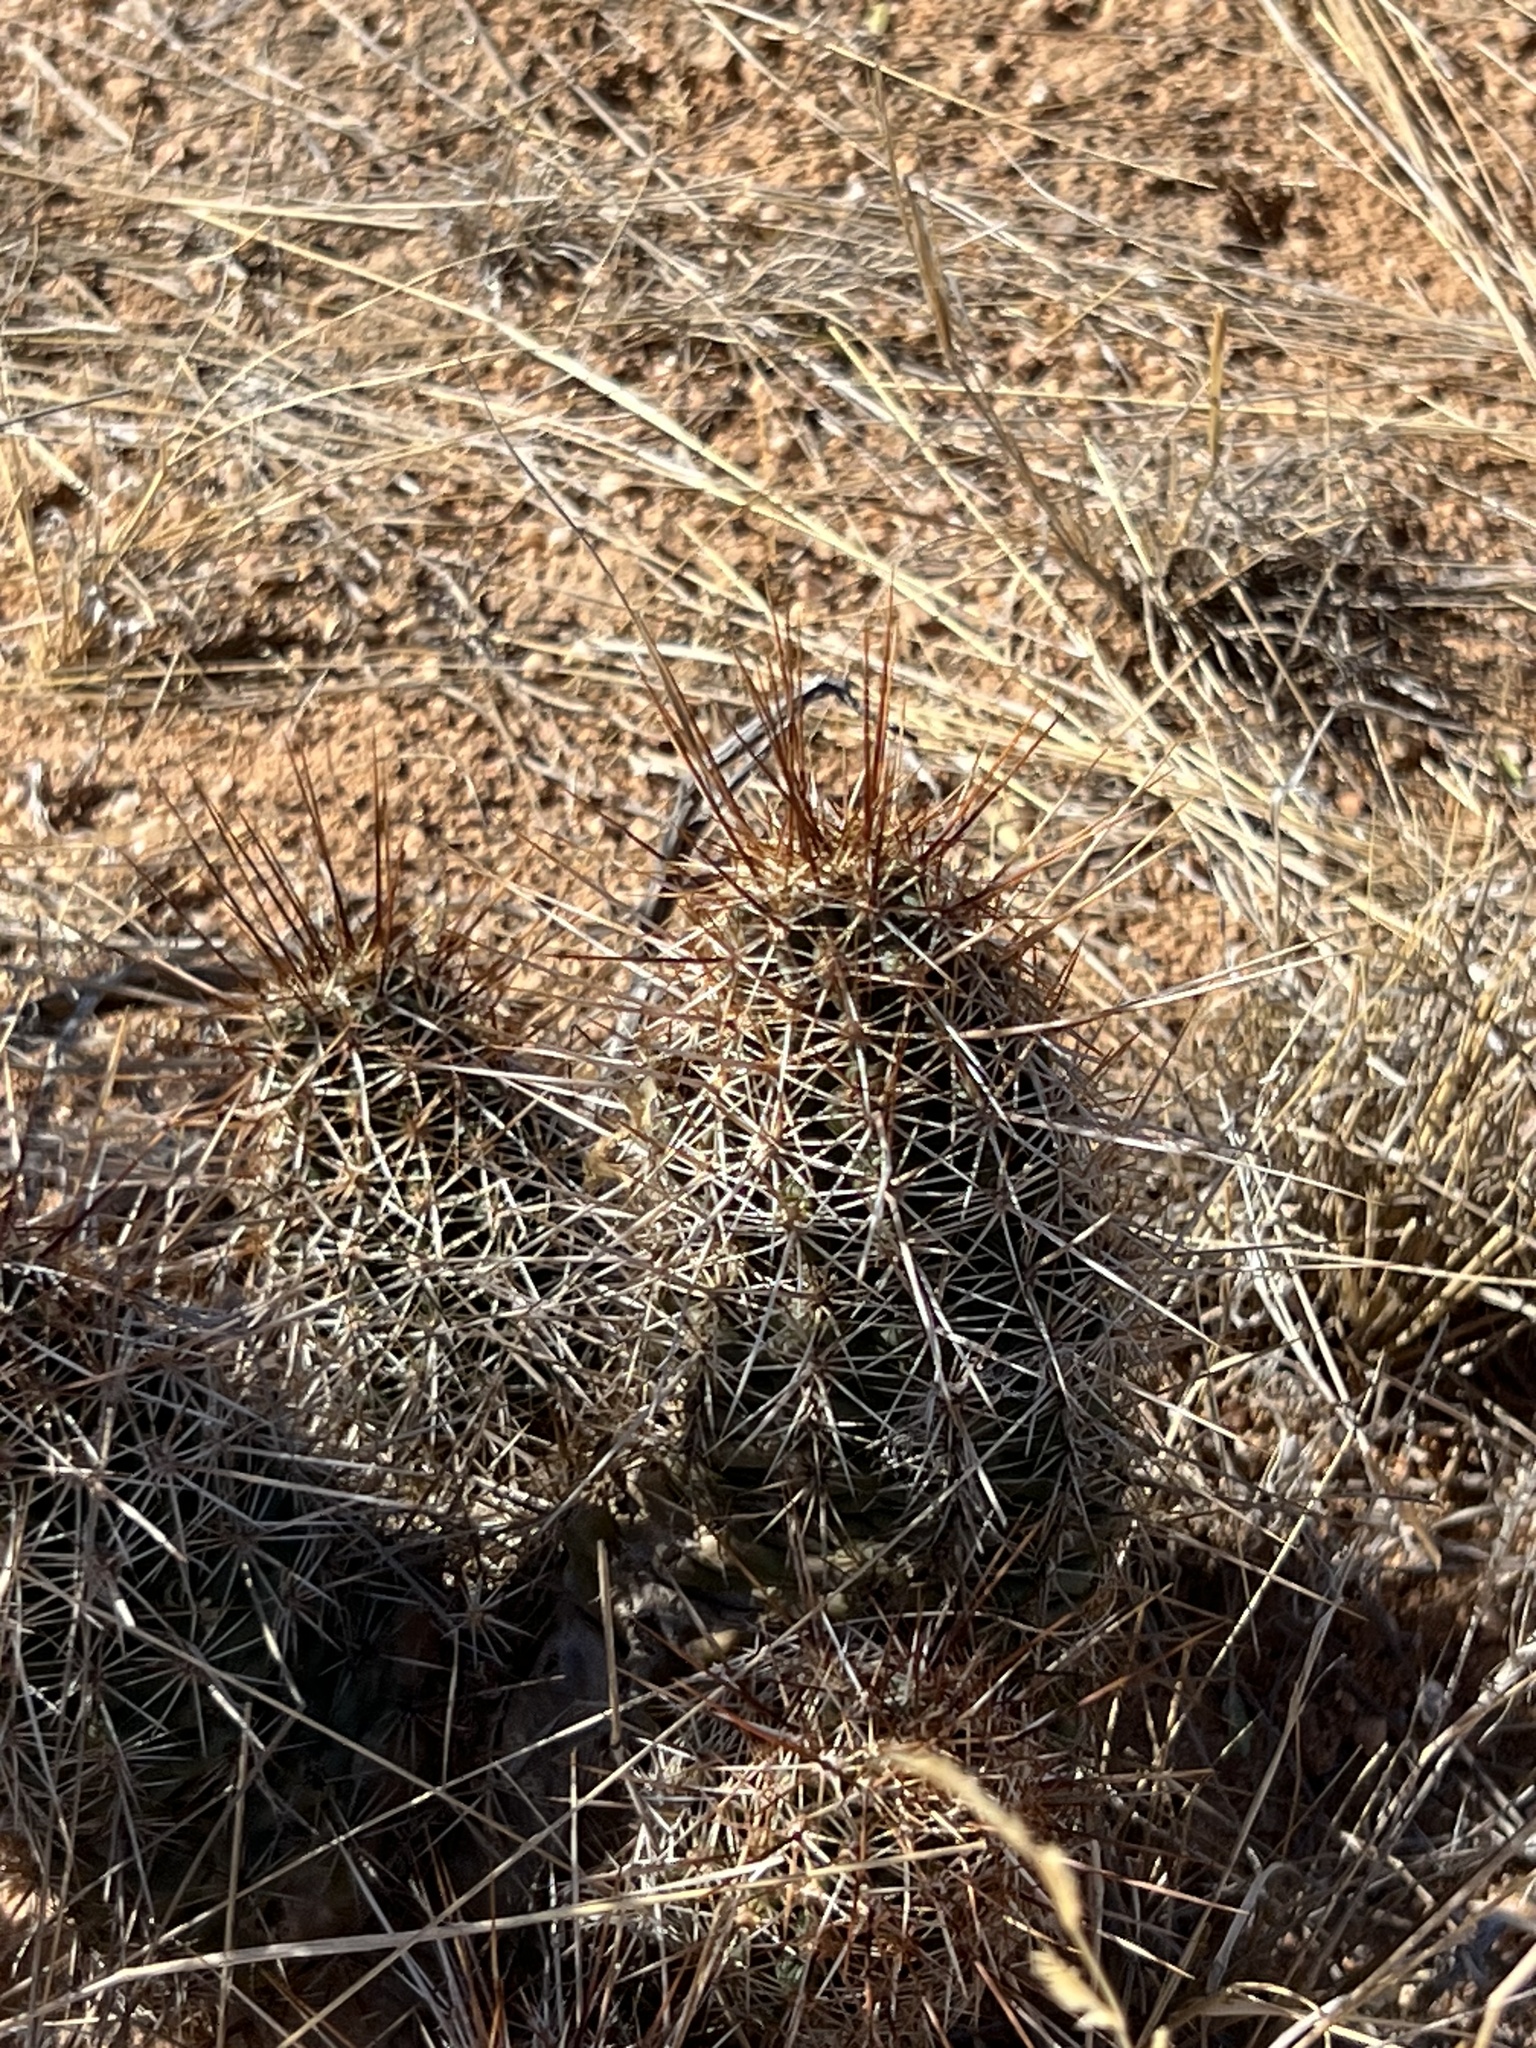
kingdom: Plantae
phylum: Tracheophyta
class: Magnoliopsida
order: Caryophyllales
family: Cactaceae
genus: Echinocereus
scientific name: Echinocereus fasciculatus
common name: Bundle hedgehog
